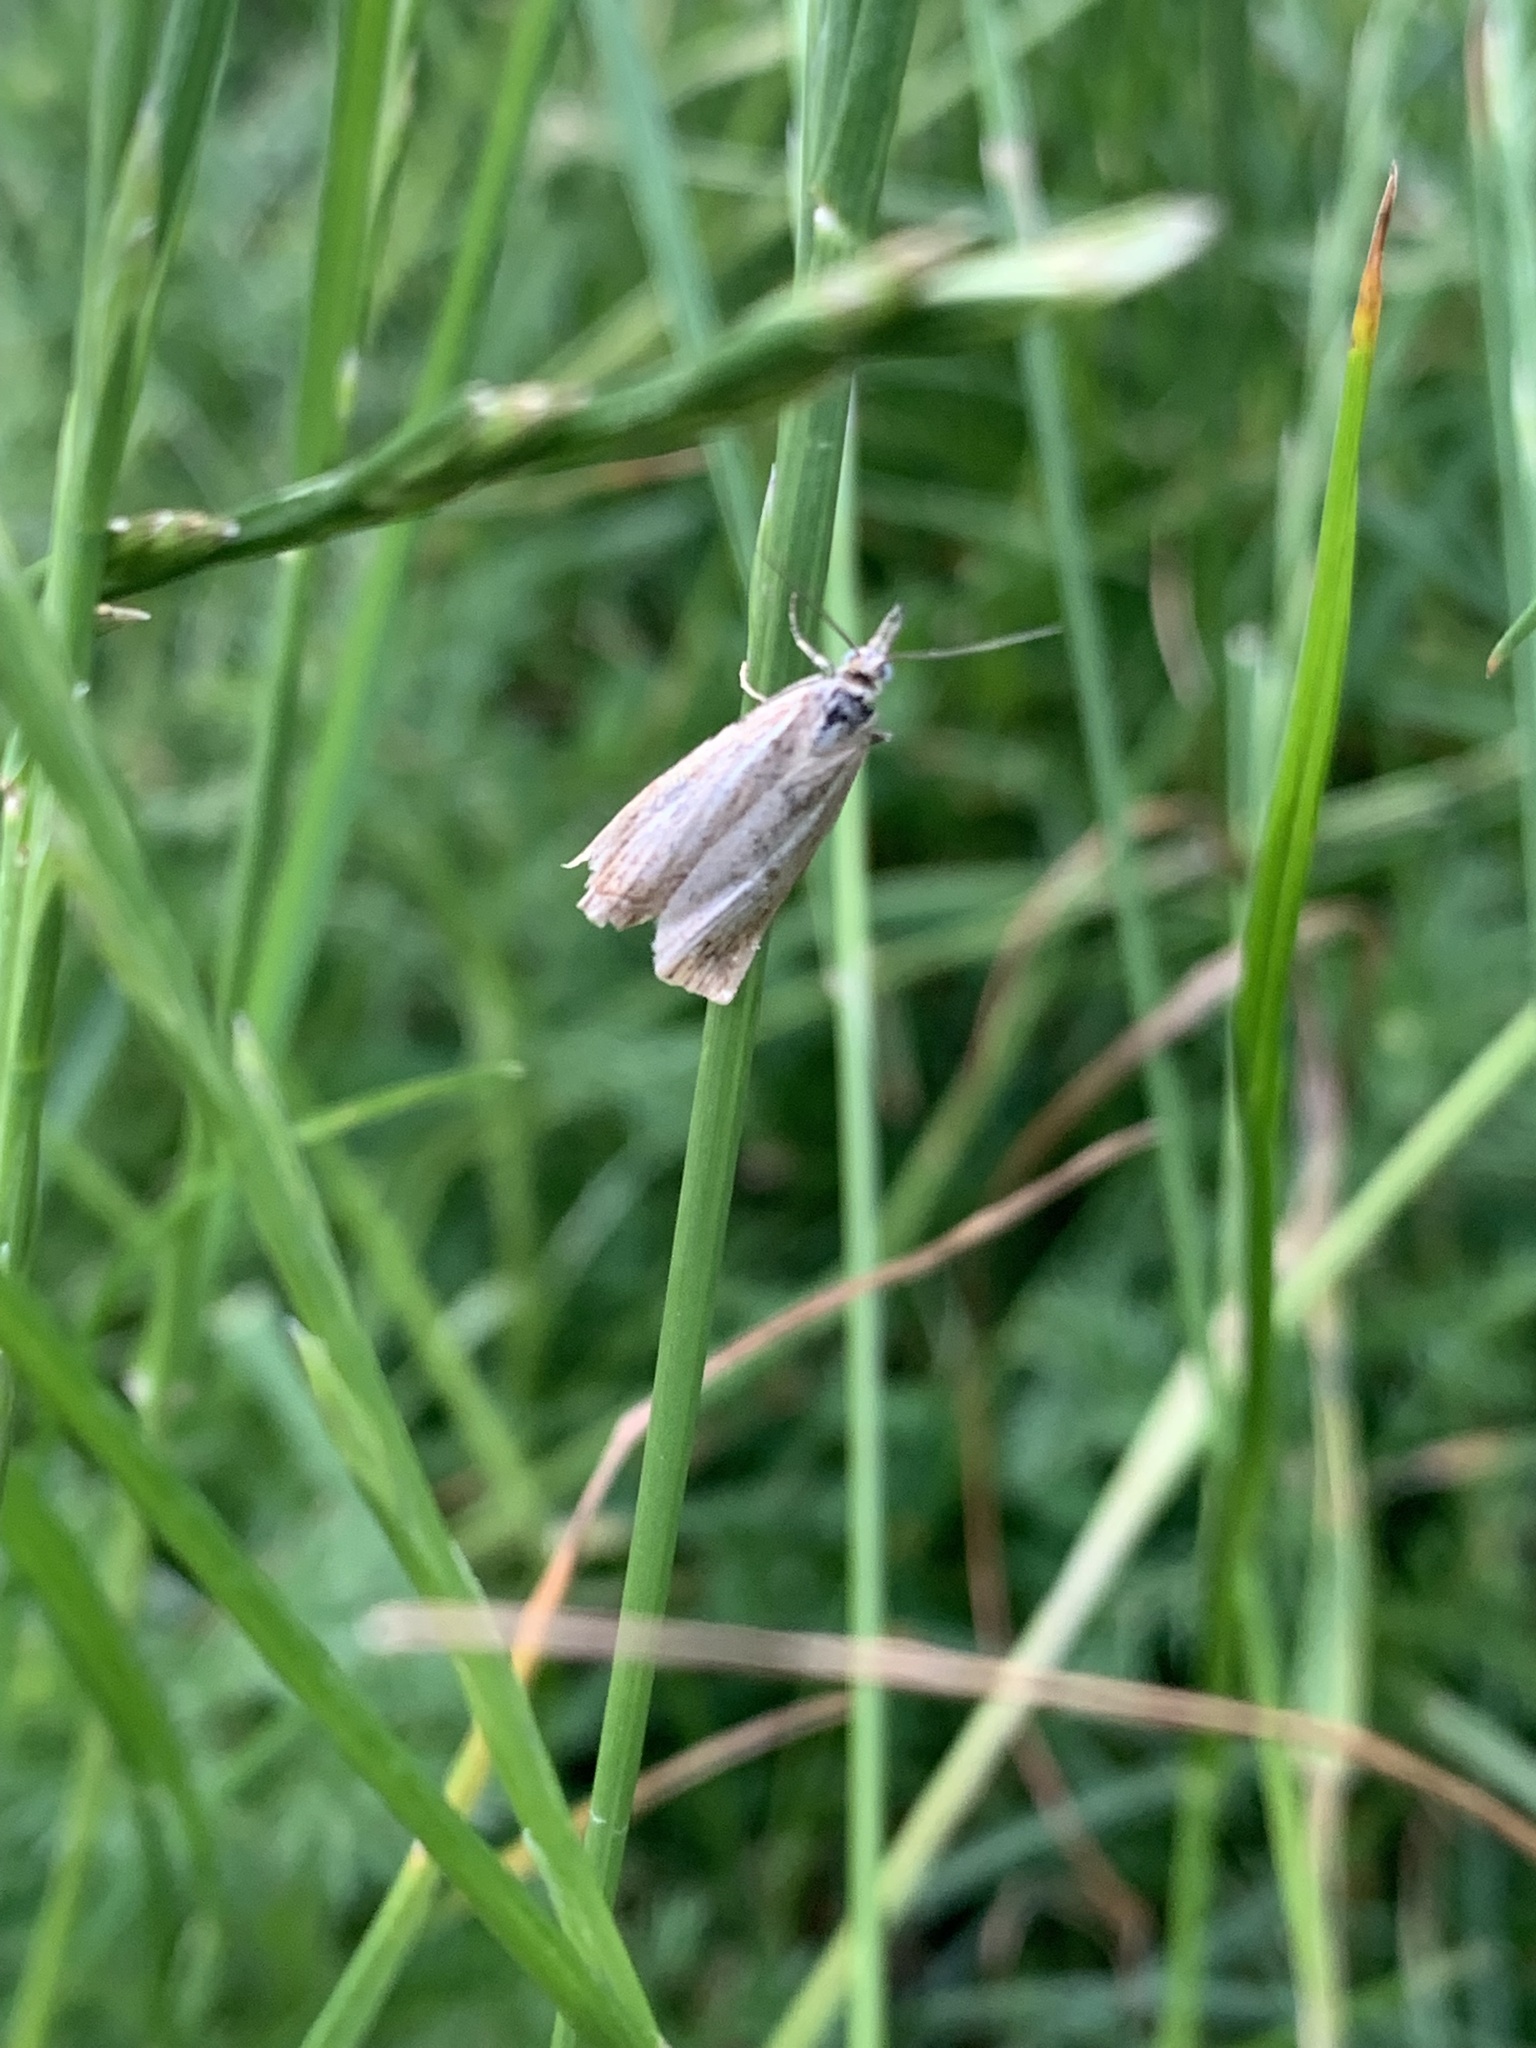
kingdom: Animalia
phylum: Arthropoda
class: Insecta
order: Lepidoptera
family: Crambidae
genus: Chrysoteuchia
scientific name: Chrysoteuchia culmella
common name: Garden grass-veneer
